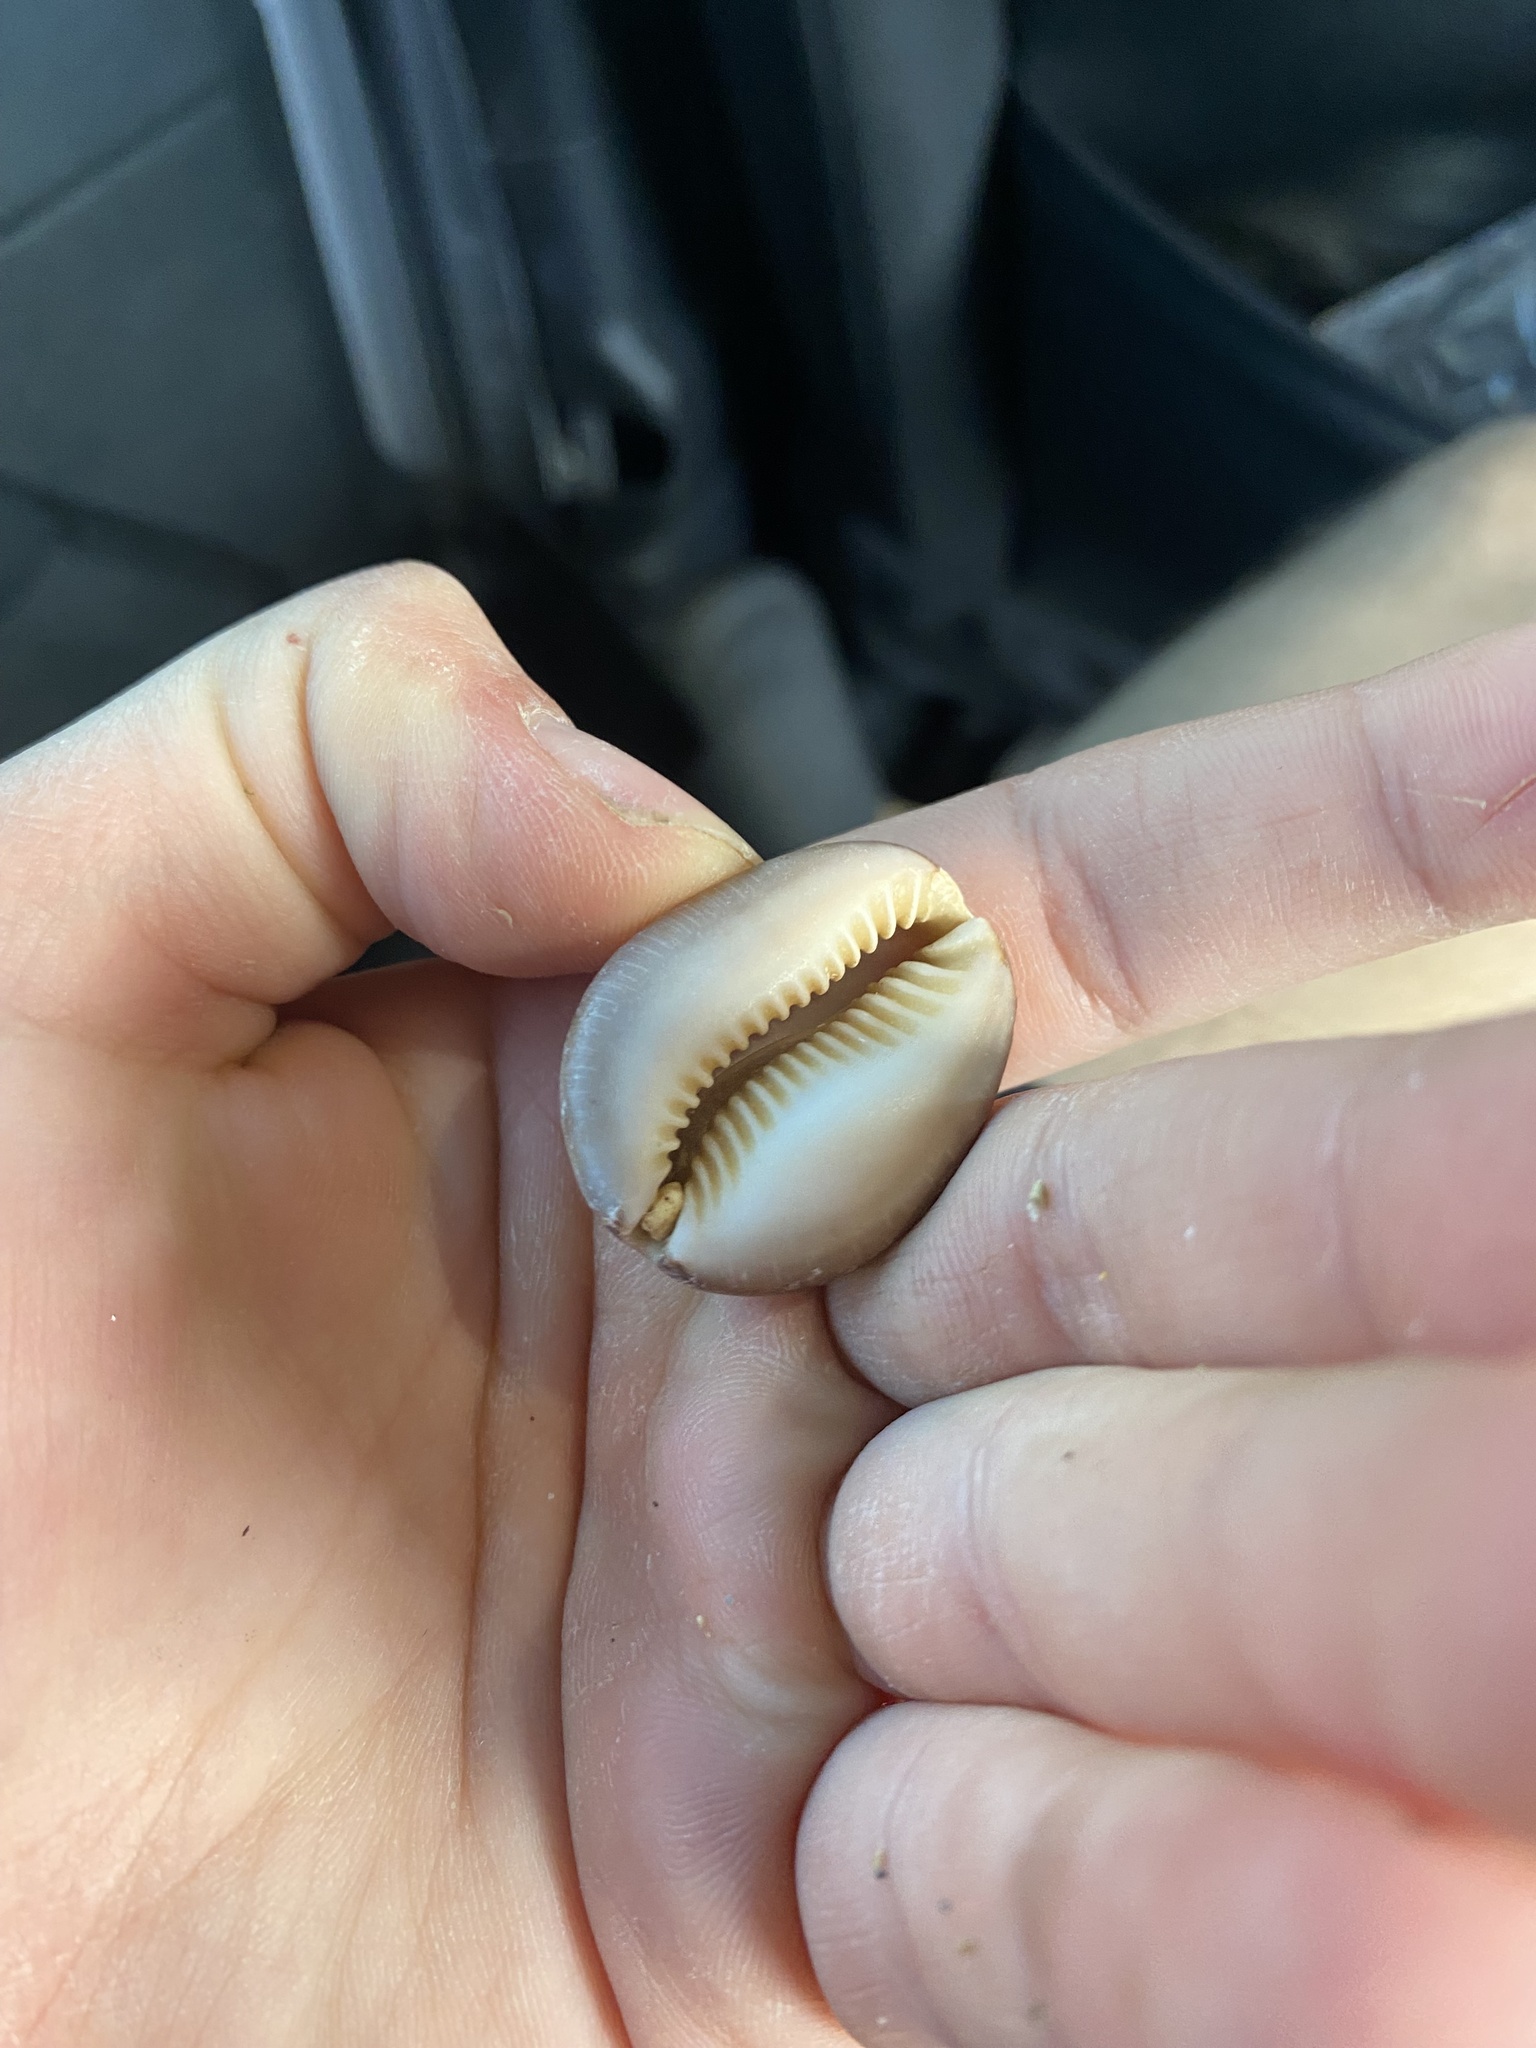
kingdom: Animalia
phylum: Mollusca
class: Gastropoda
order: Littorinimorpha
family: Cypraeidae
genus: Monetaria
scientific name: Monetaria caputophidii
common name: Snake's head cowry
